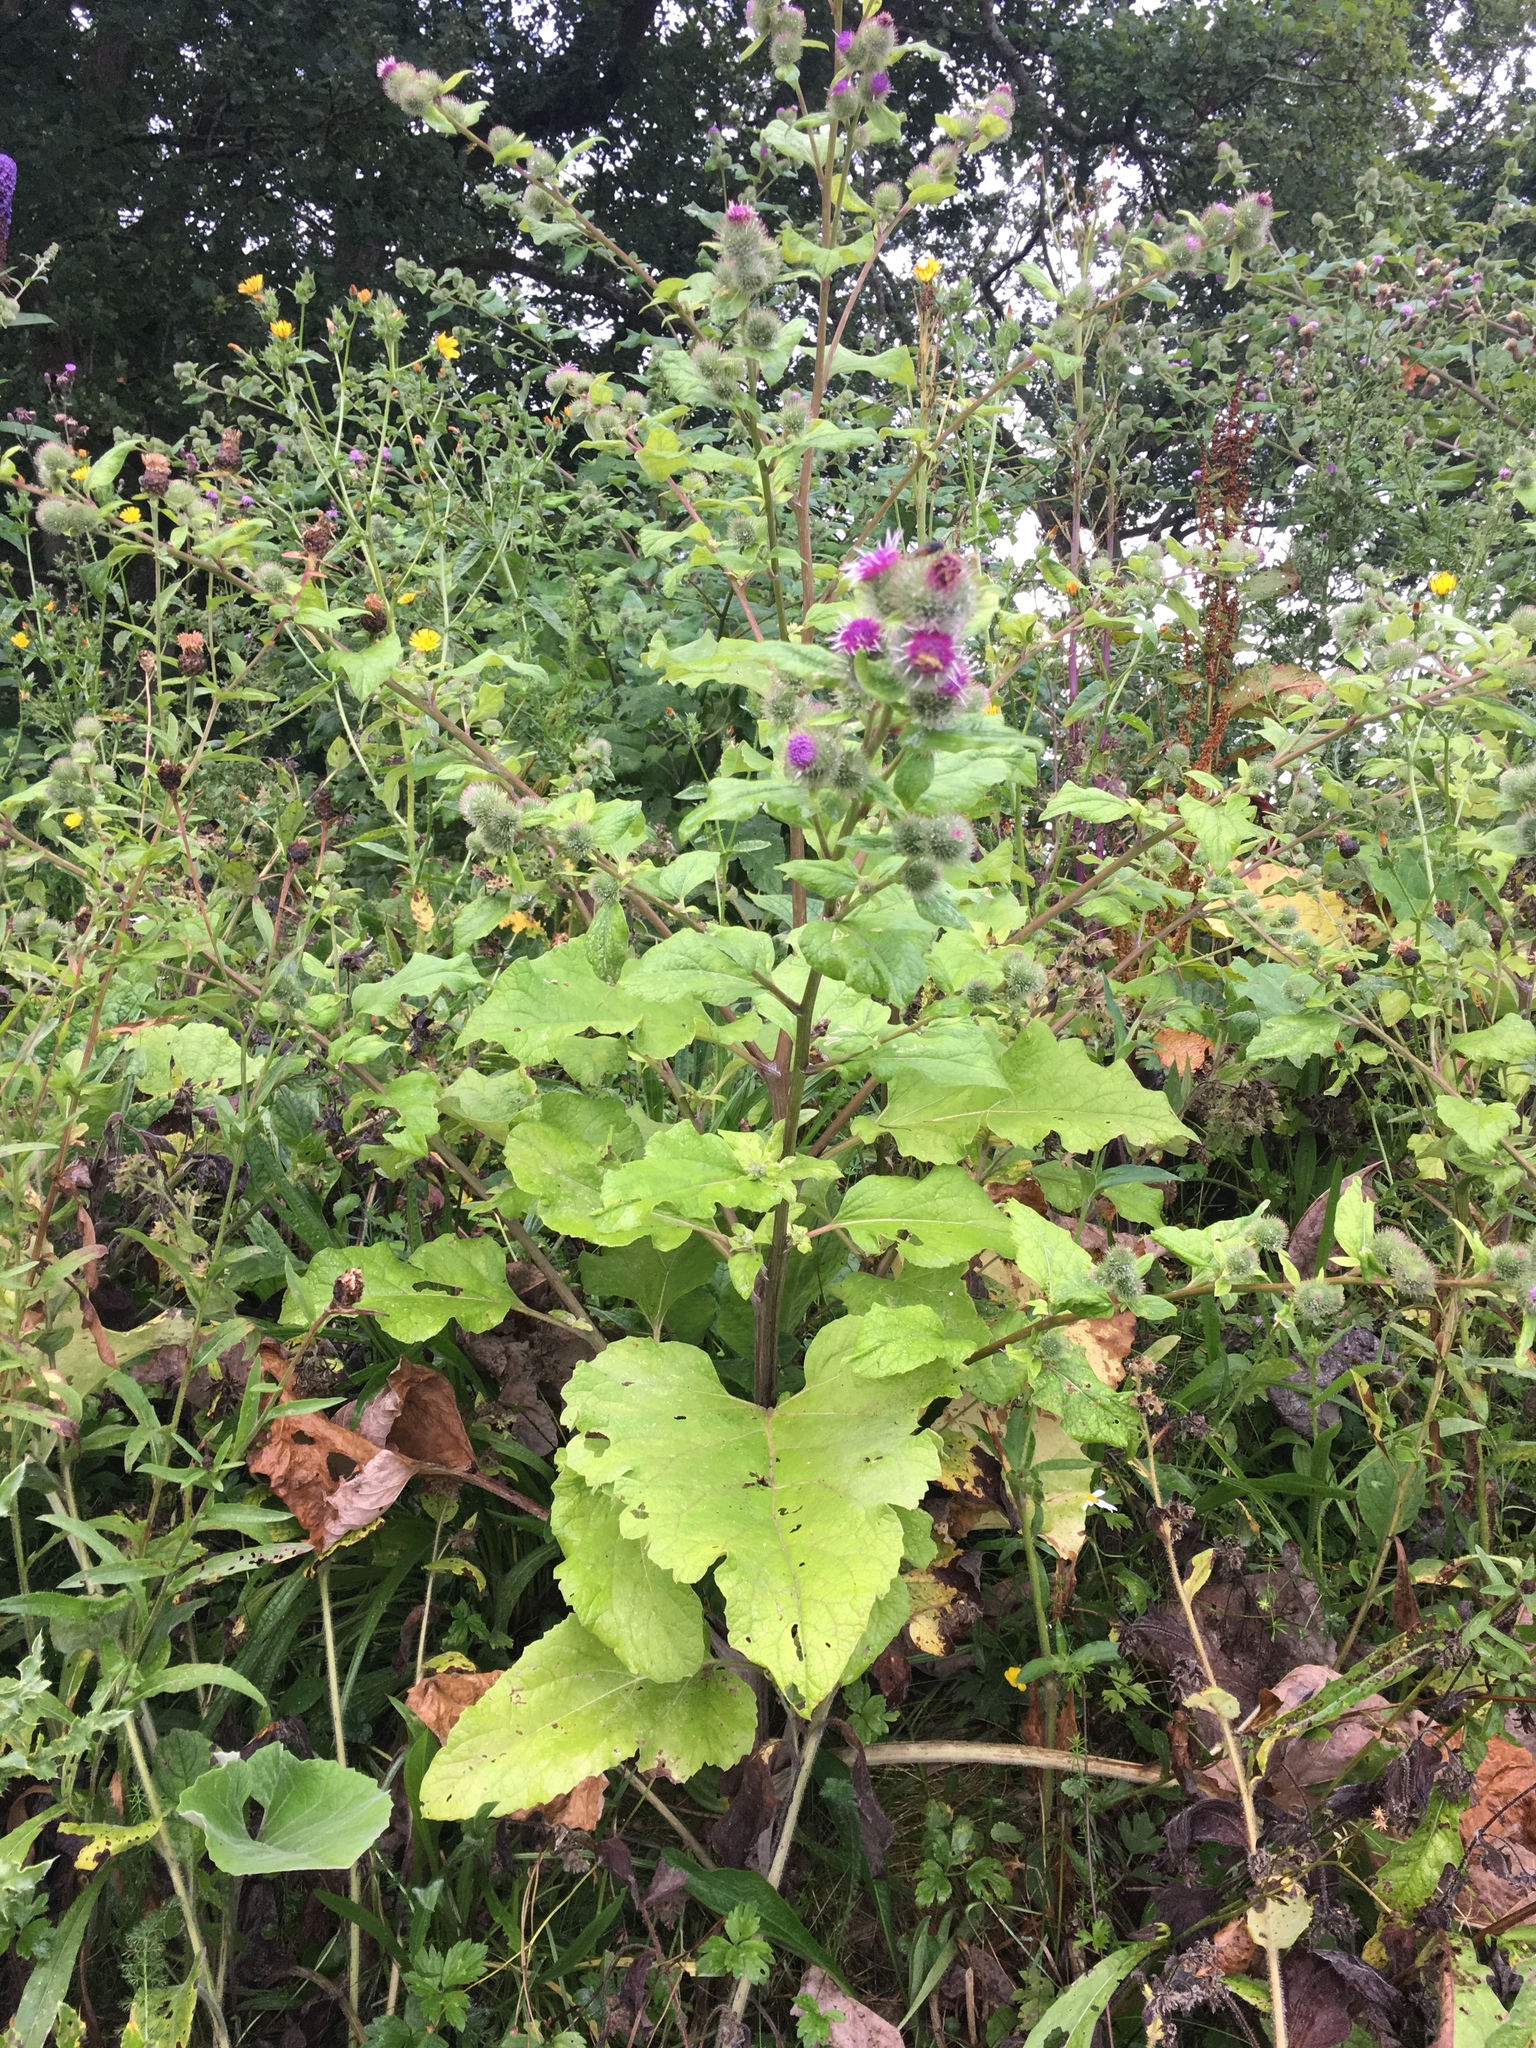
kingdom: Plantae
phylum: Tracheophyta
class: Magnoliopsida
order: Asterales
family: Asteraceae
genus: Arctium
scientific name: Arctium minus
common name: Lesser burdock
